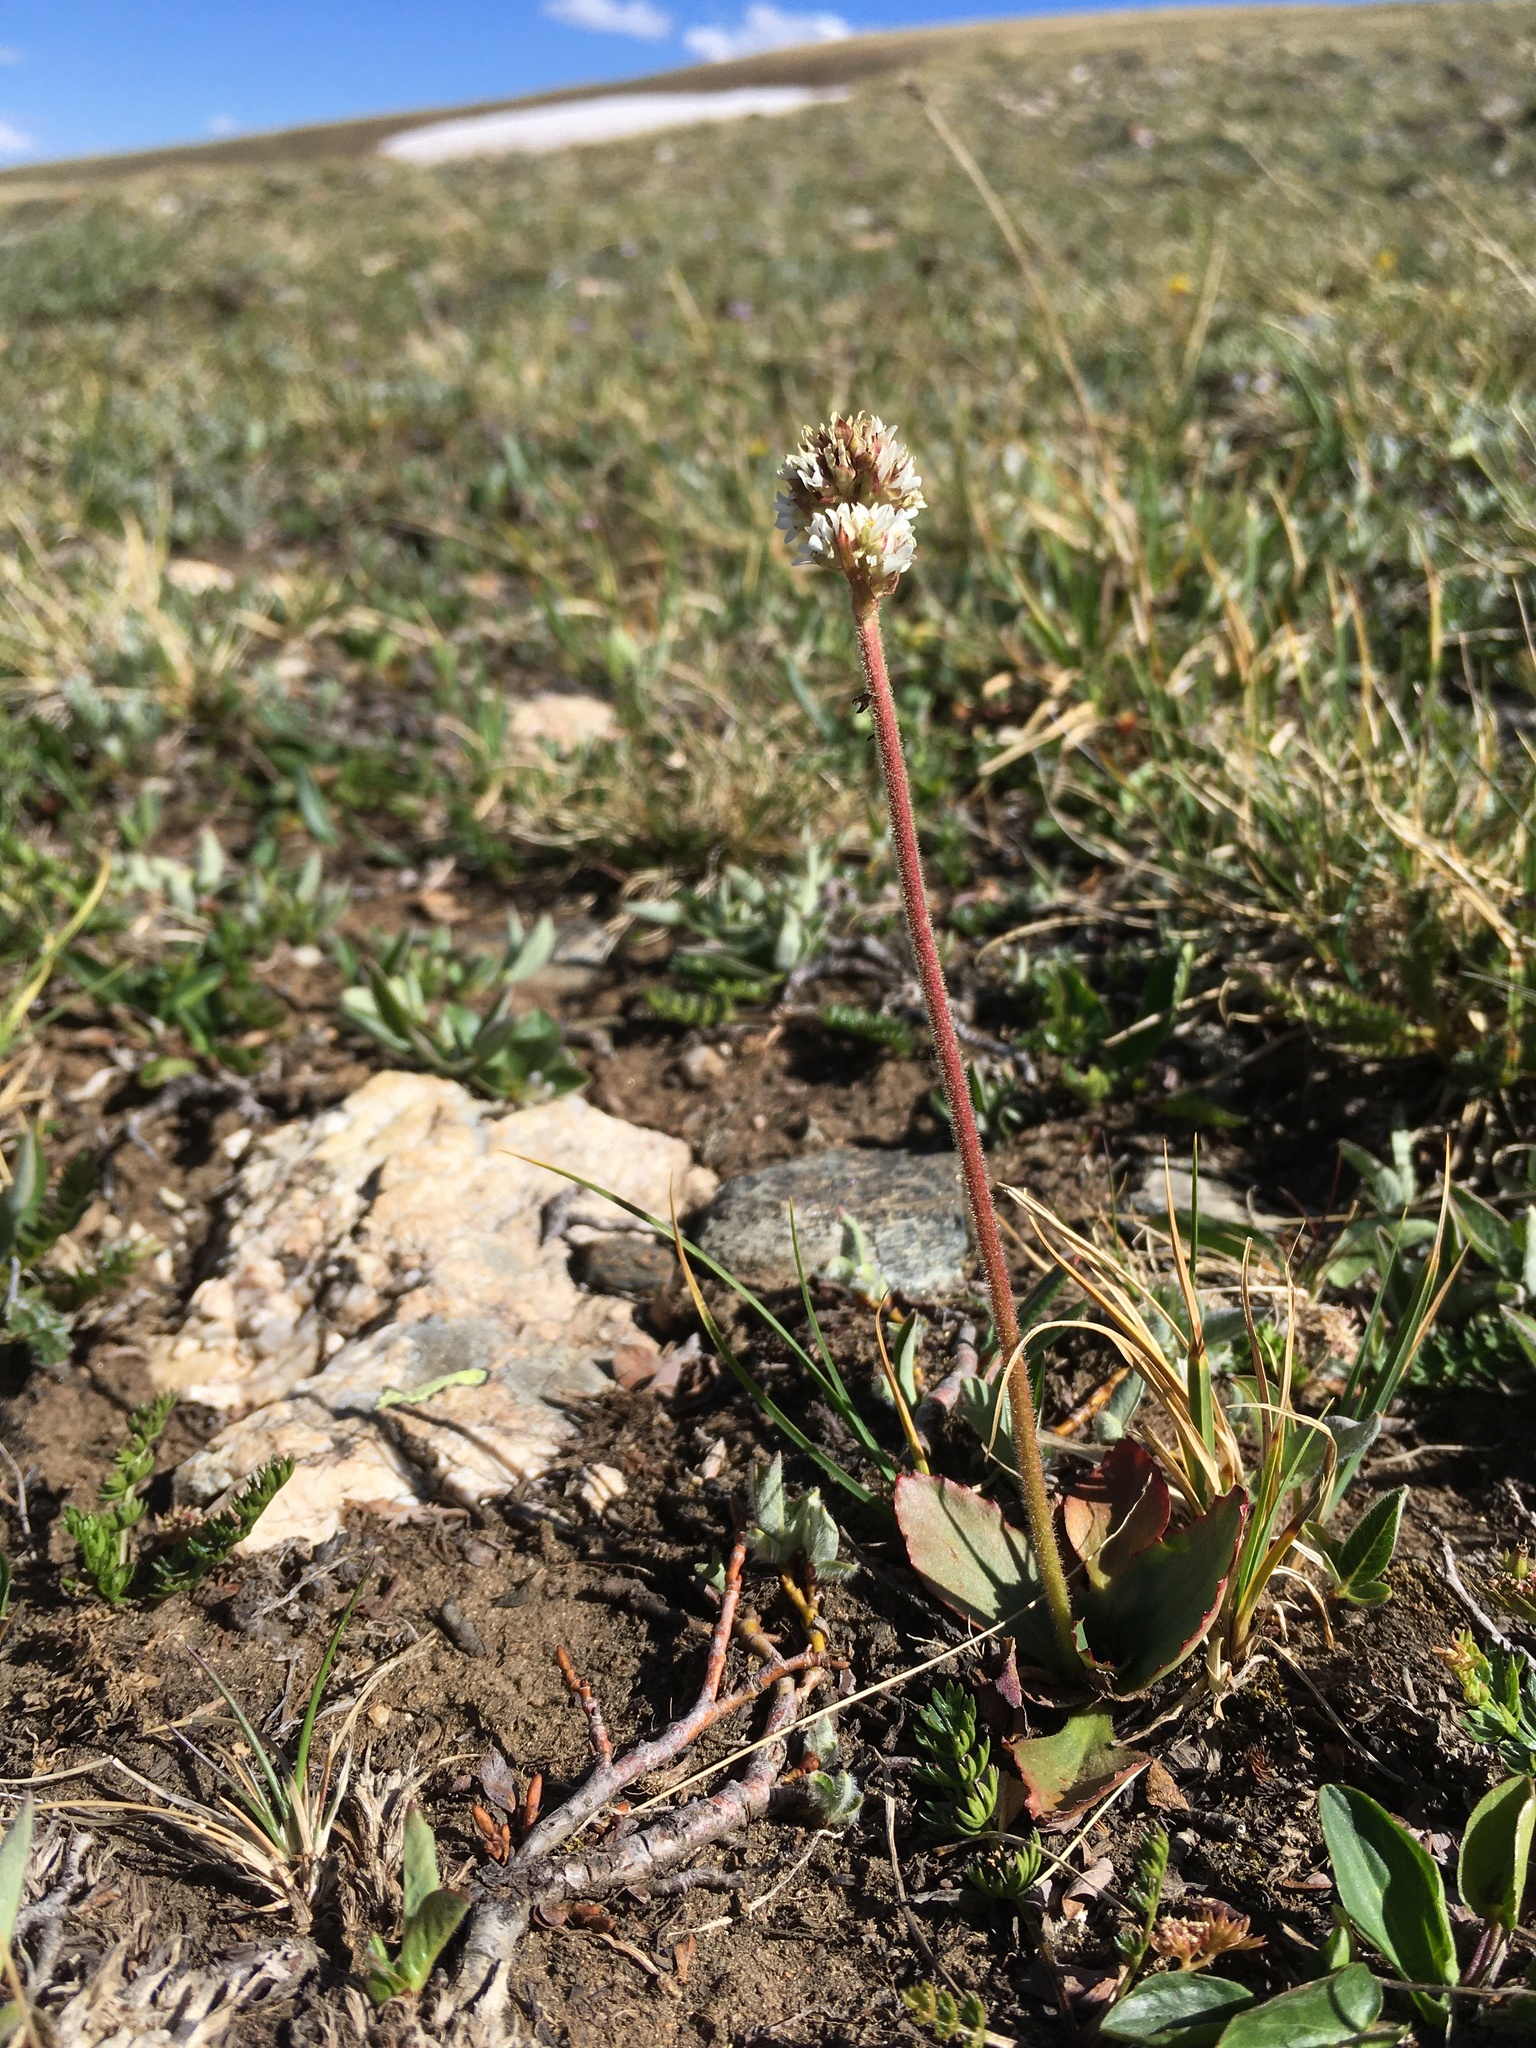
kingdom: Plantae
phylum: Tracheophyta
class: Magnoliopsida
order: Saxifragales
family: Saxifragaceae
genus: Micranthes
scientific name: Micranthes rhomboidea
